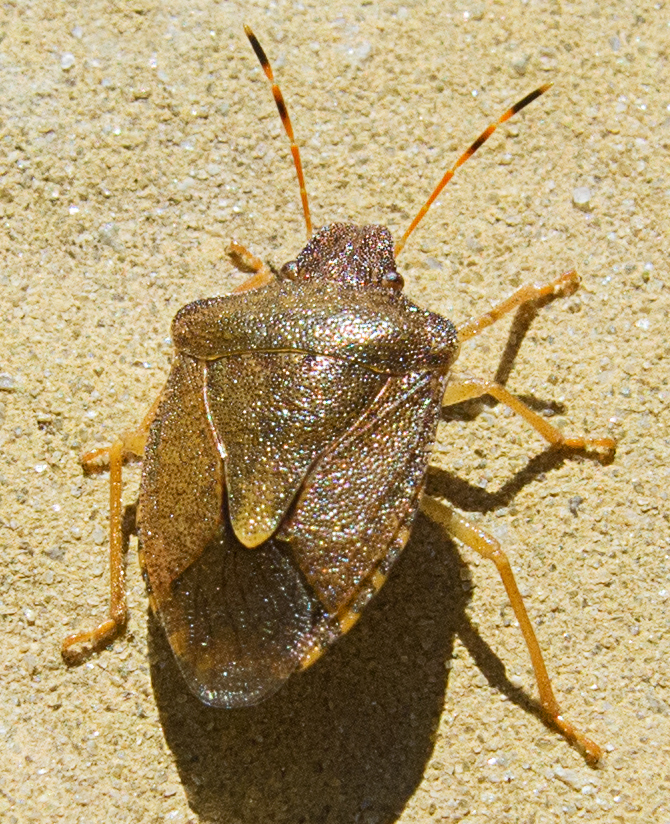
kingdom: Animalia
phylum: Arthropoda
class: Insecta
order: Hemiptera
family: Pentatomidae
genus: Holcostethus
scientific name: Holcostethus strictus
